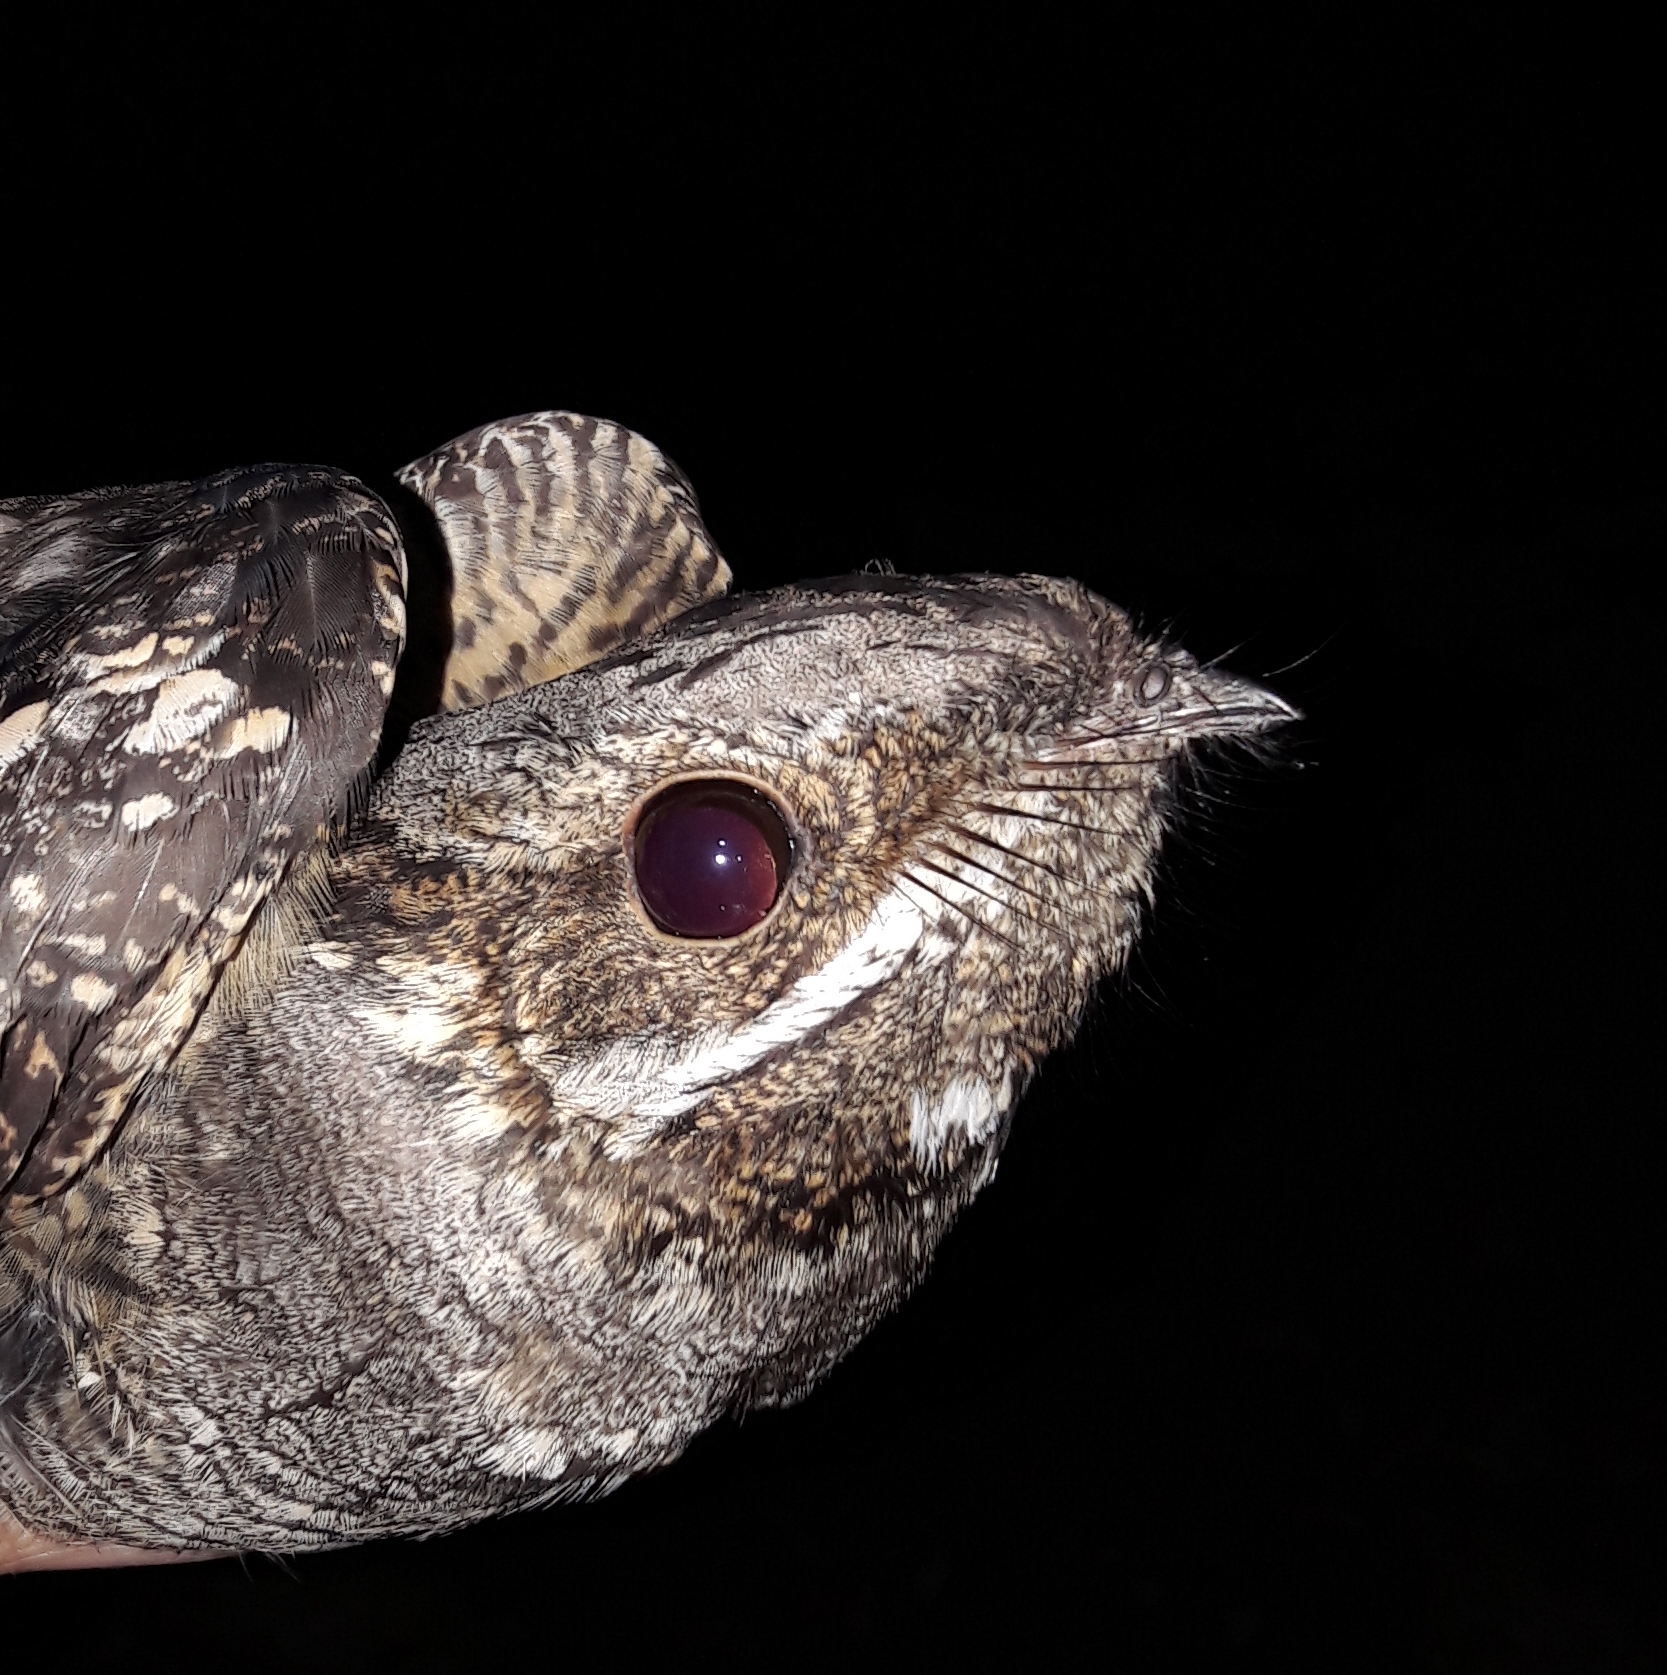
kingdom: Animalia
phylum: Chordata
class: Aves
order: Caprimulgiformes
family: Caprimulgidae
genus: Caprimulgus
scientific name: Caprimulgus europaeus
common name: European nightjar
